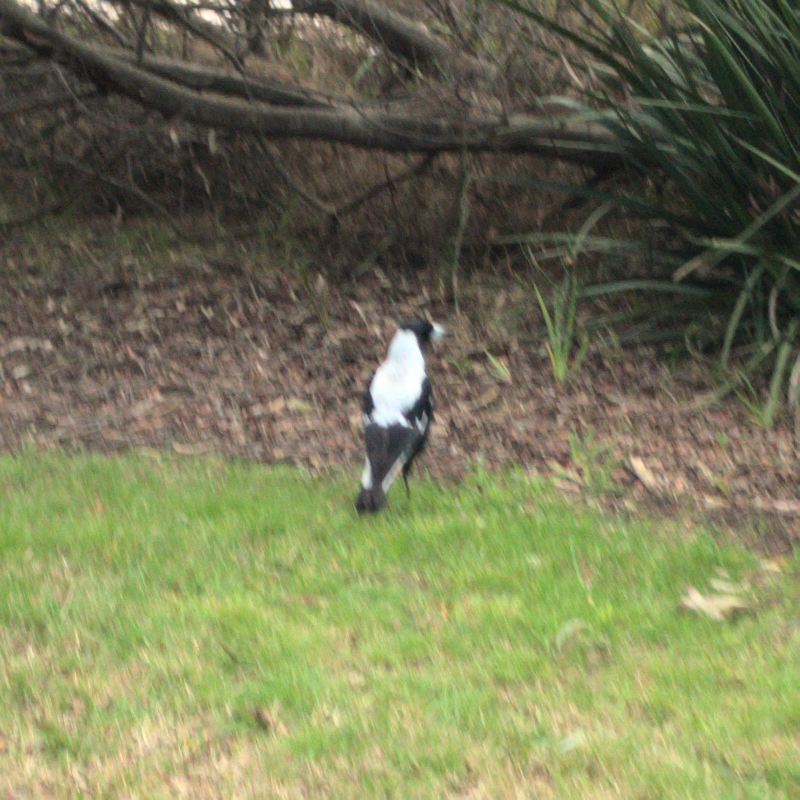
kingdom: Animalia
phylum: Chordata
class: Aves
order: Passeriformes
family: Cracticidae
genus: Gymnorhina
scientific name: Gymnorhina tibicen
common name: Australian magpie
